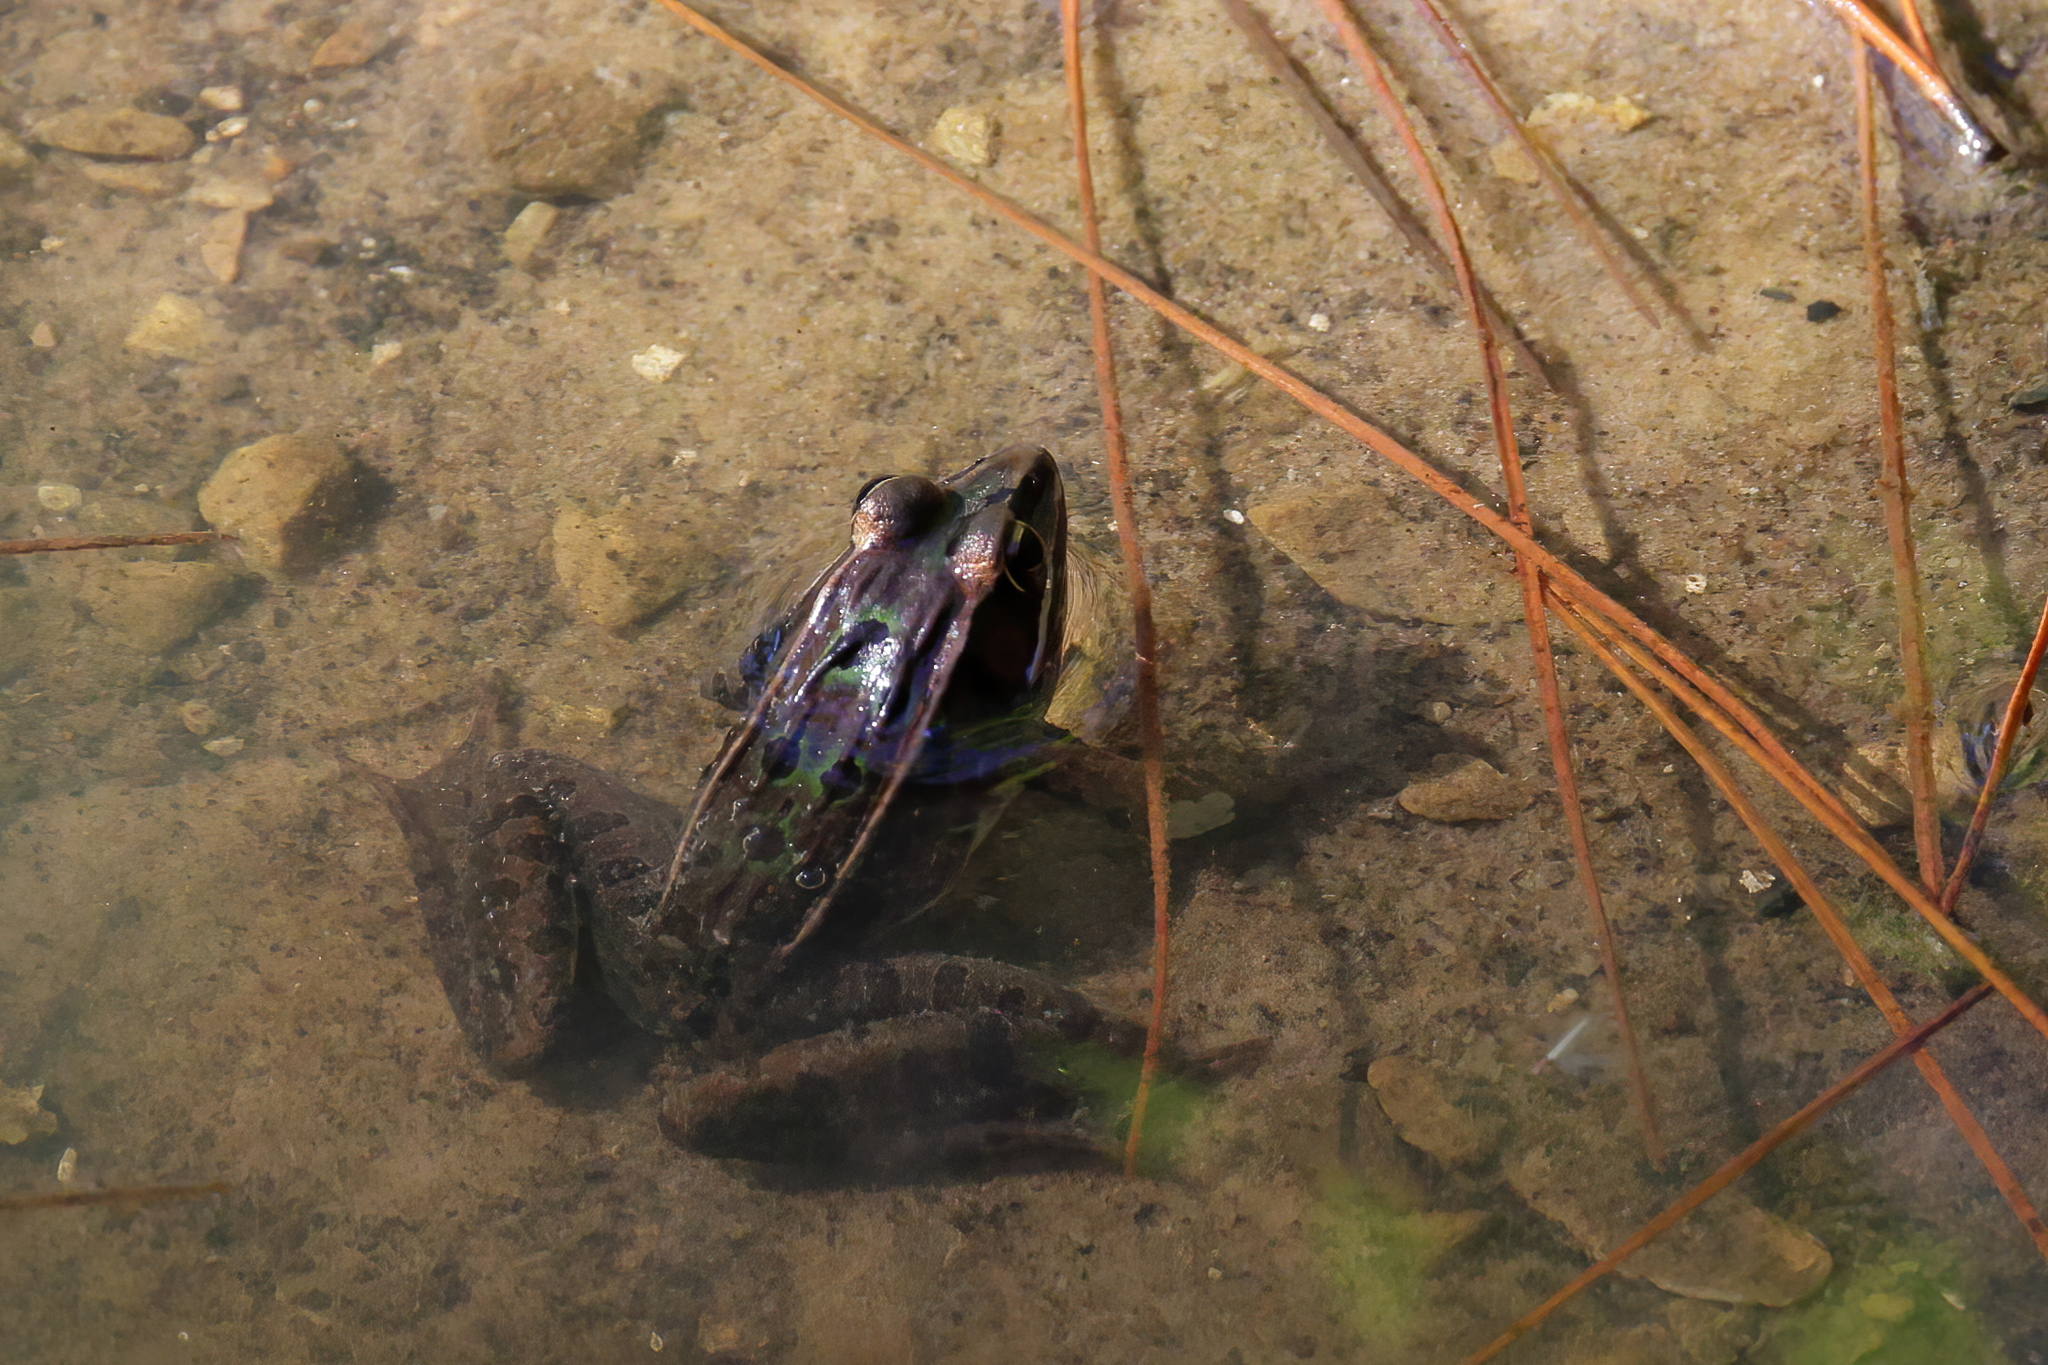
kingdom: Animalia
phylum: Chordata
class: Amphibia
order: Anura
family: Ranidae
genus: Lithobates
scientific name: Lithobates sphenocephalus
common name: Southern leopard frog
